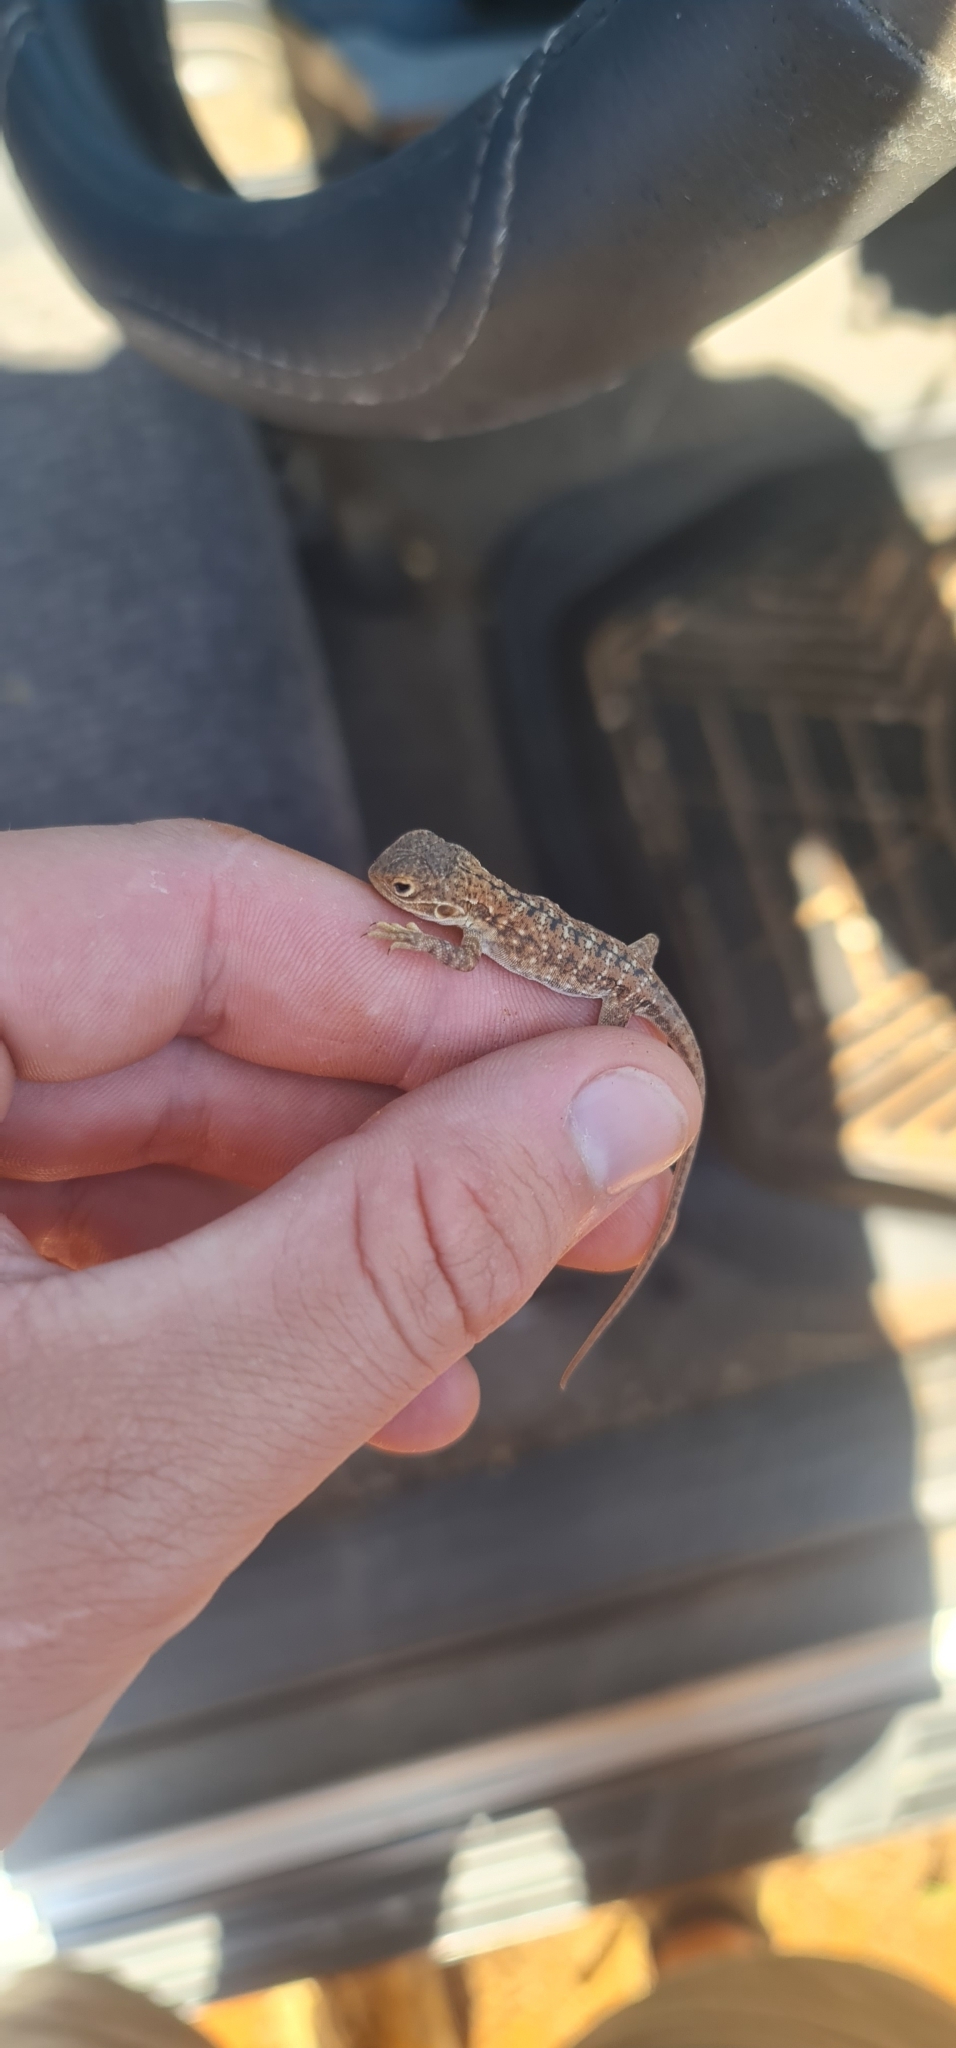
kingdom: Animalia
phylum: Chordata
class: Squamata
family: Agamidae
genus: Ctenophorus
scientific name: Ctenophorus pictus
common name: Painted dragon
